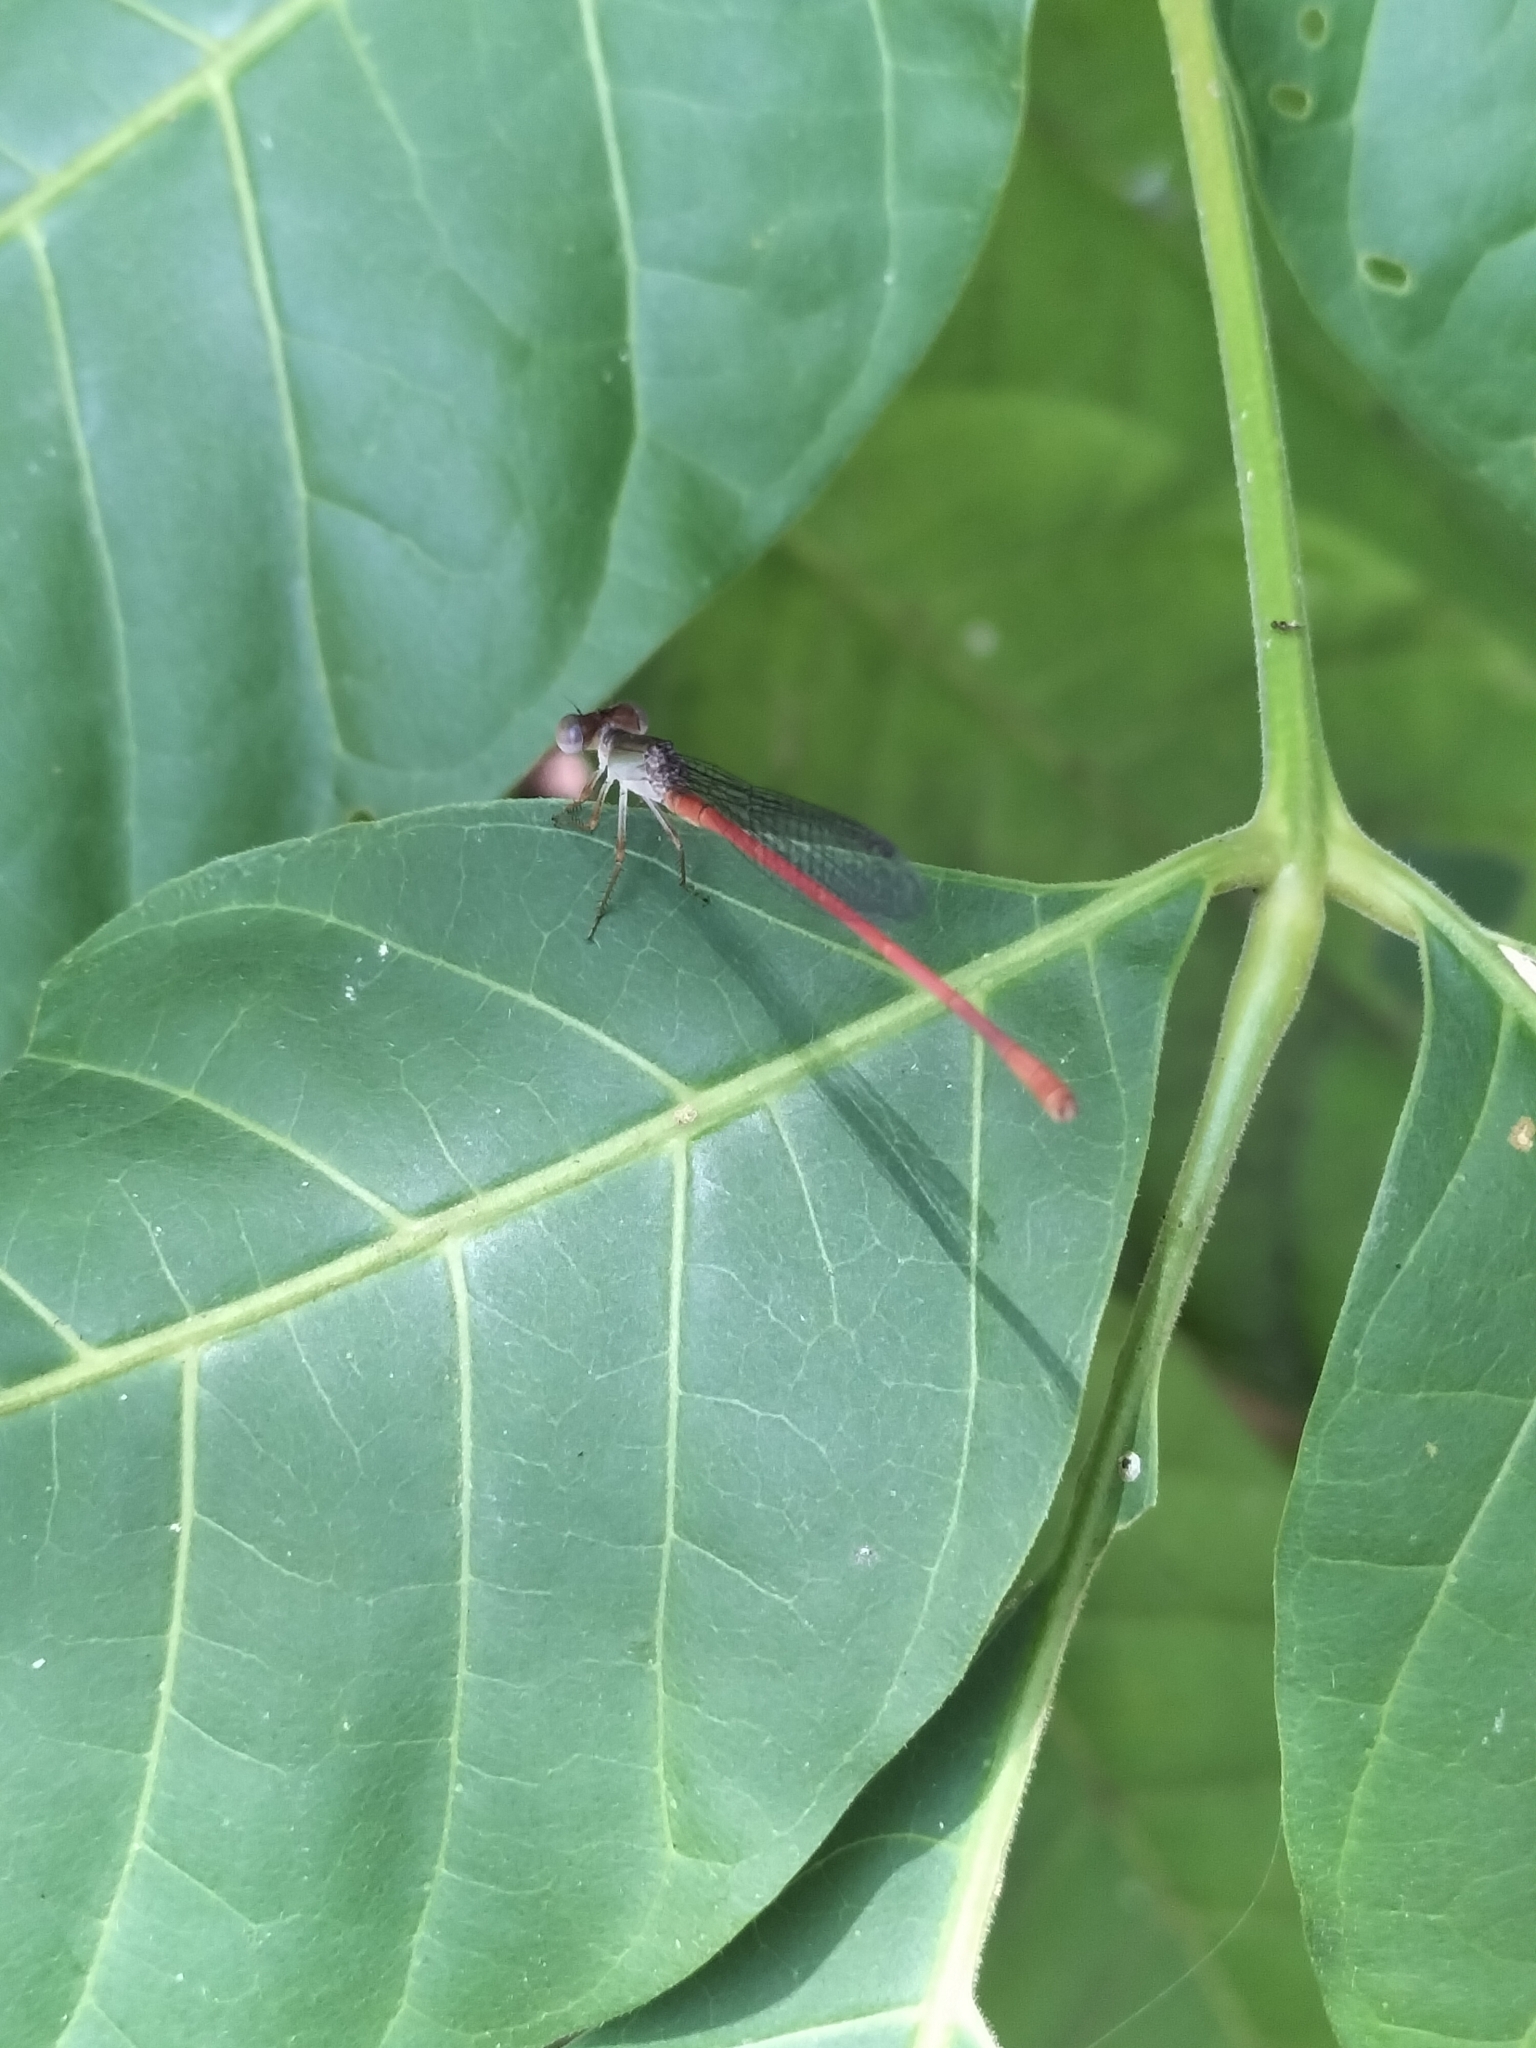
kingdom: Animalia
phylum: Arthropoda
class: Insecta
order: Odonata
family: Coenagrionidae
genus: Ceriagrion
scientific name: Ceriagrion aeruginosum
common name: Redtail
